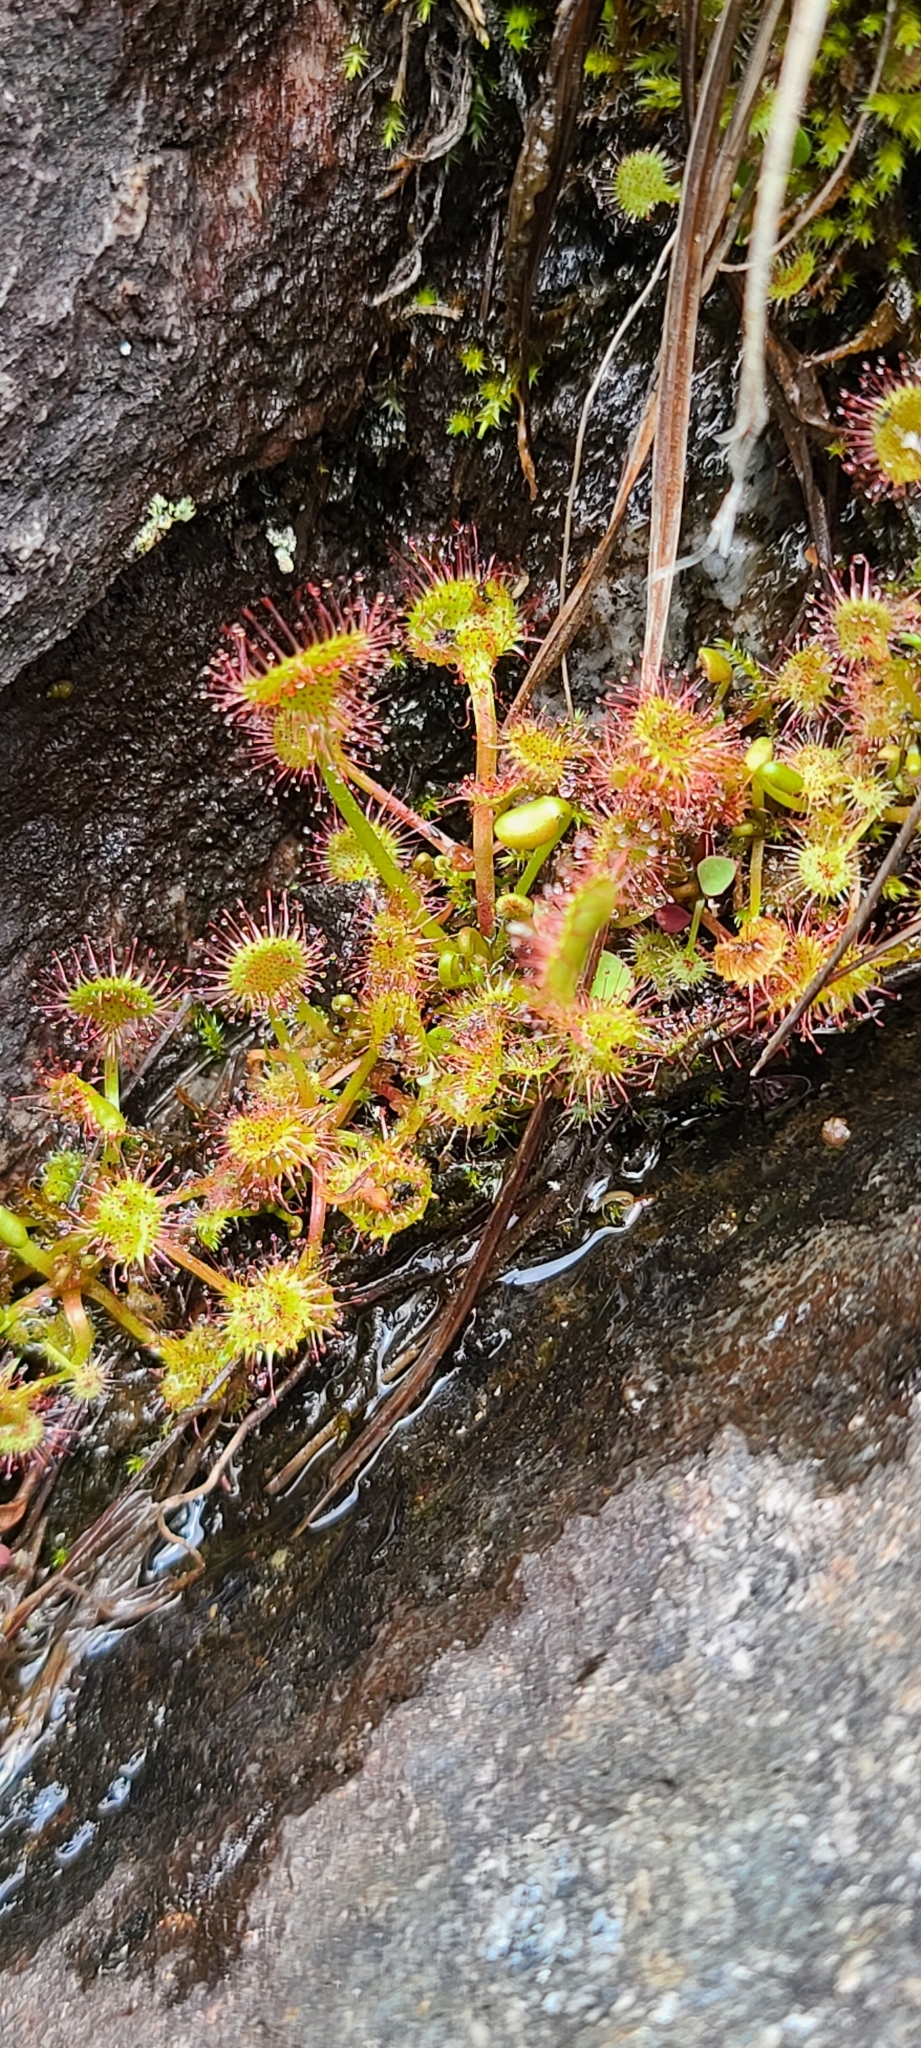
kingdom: Plantae
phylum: Tracheophyta
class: Magnoliopsida
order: Caryophyllales
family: Droseraceae
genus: Drosera
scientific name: Drosera rotundifolia
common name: Round-leaved sundew
